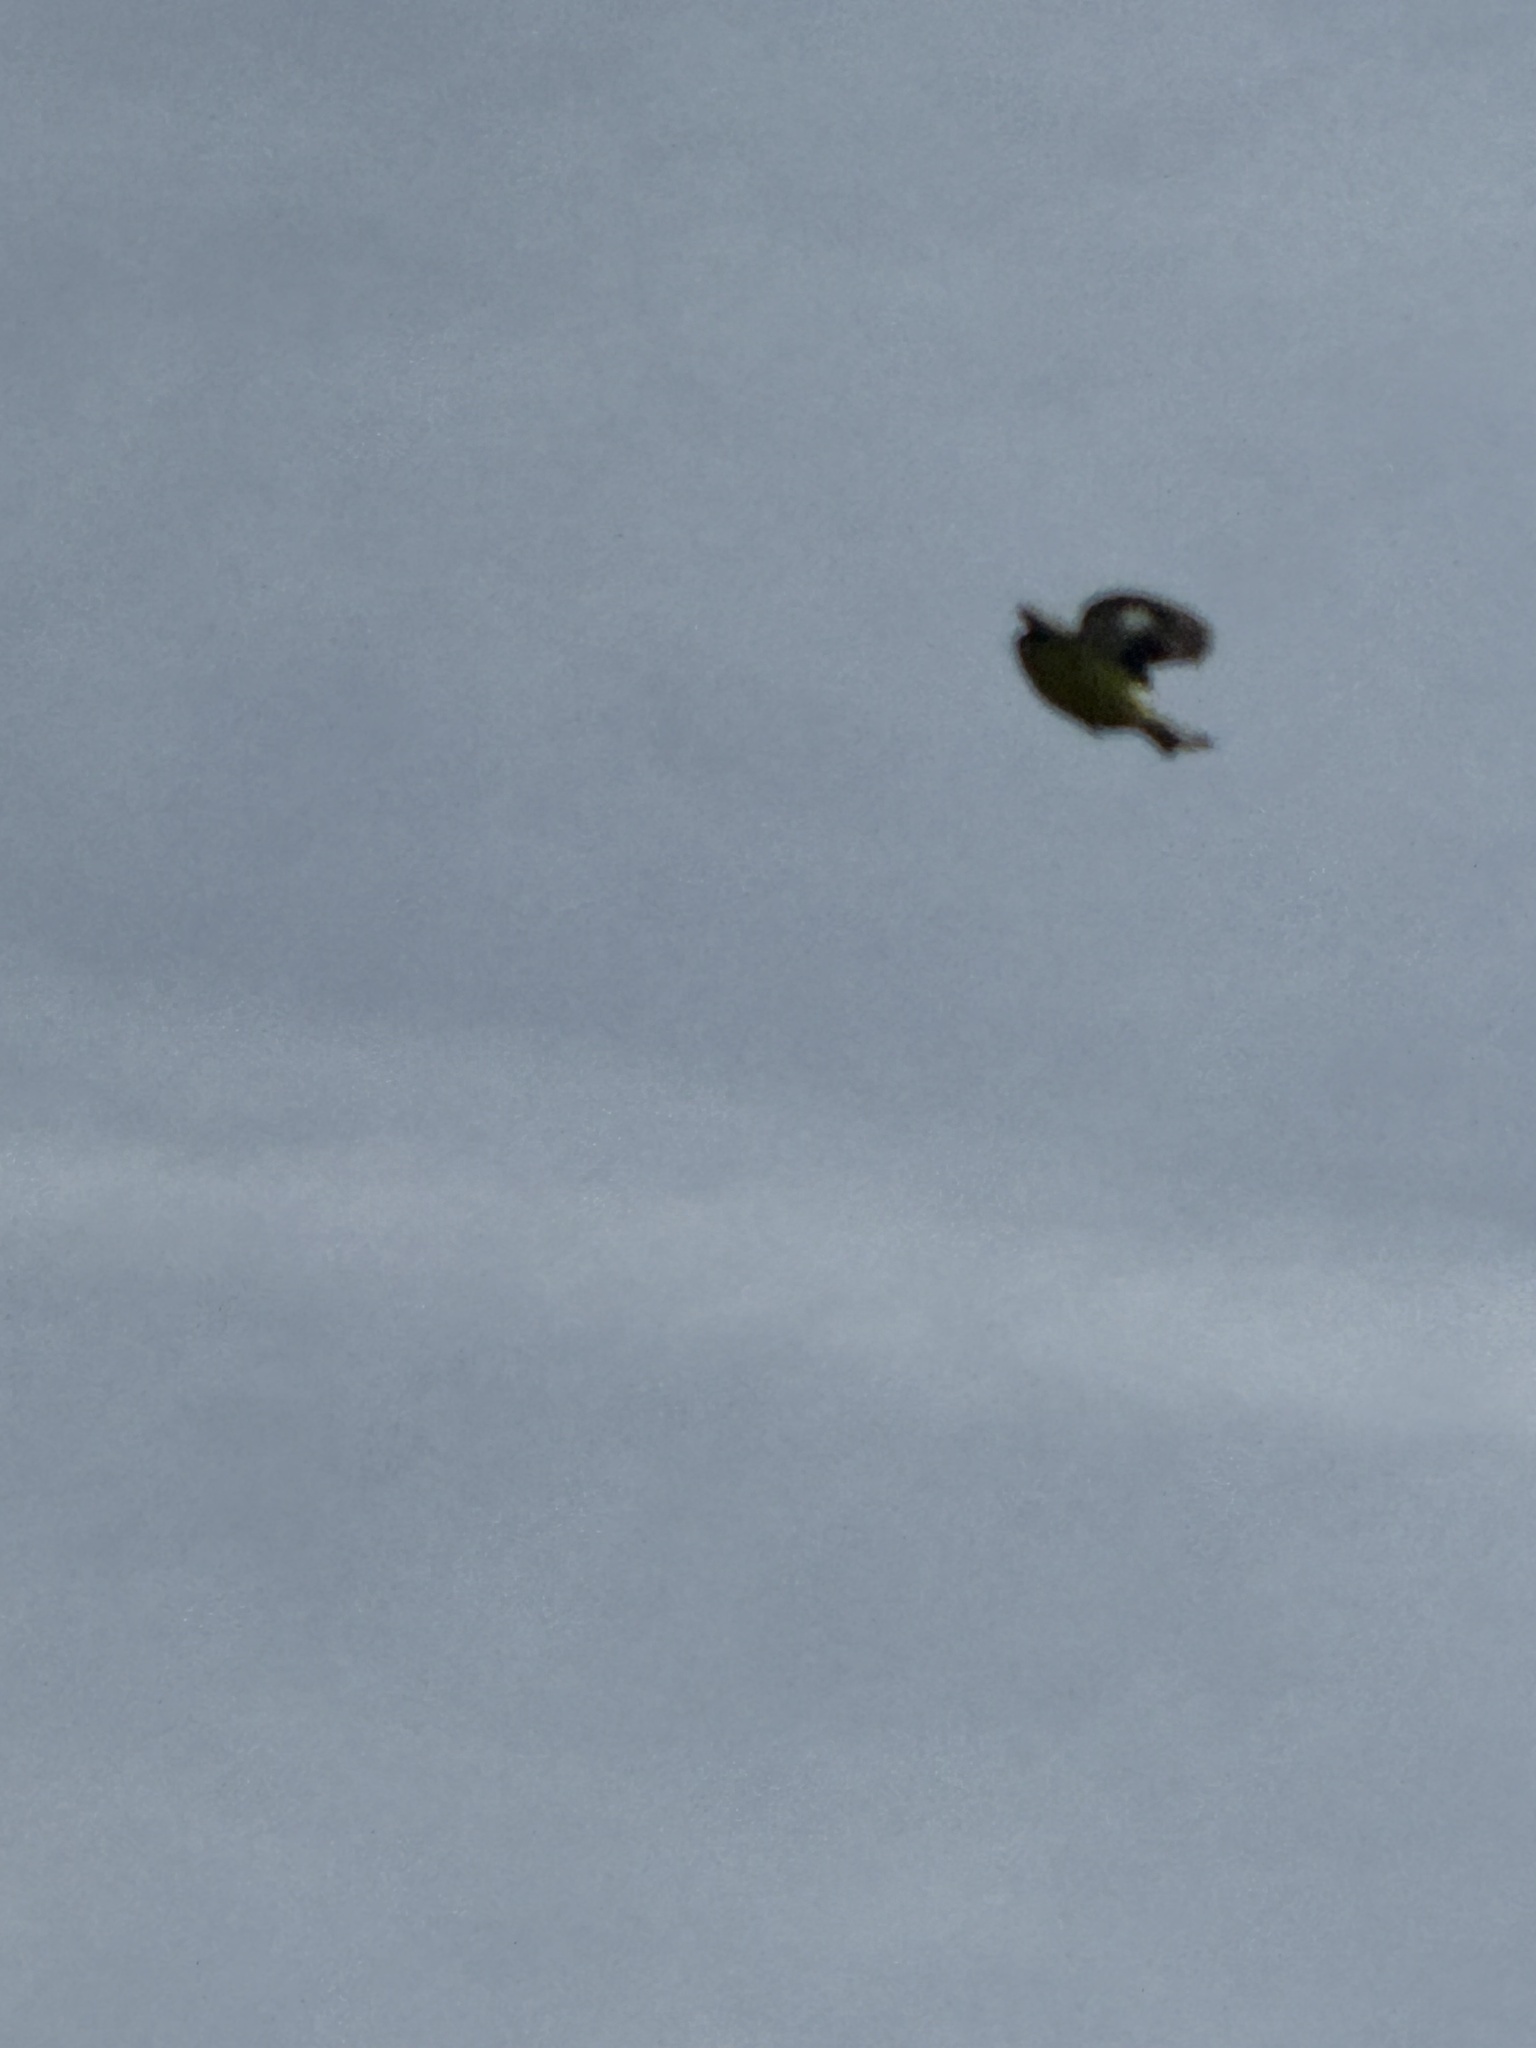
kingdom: Animalia
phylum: Chordata
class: Aves
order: Passeriformes
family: Fringillidae
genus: Spinus
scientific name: Spinus psaltria
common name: Lesser goldfinch
